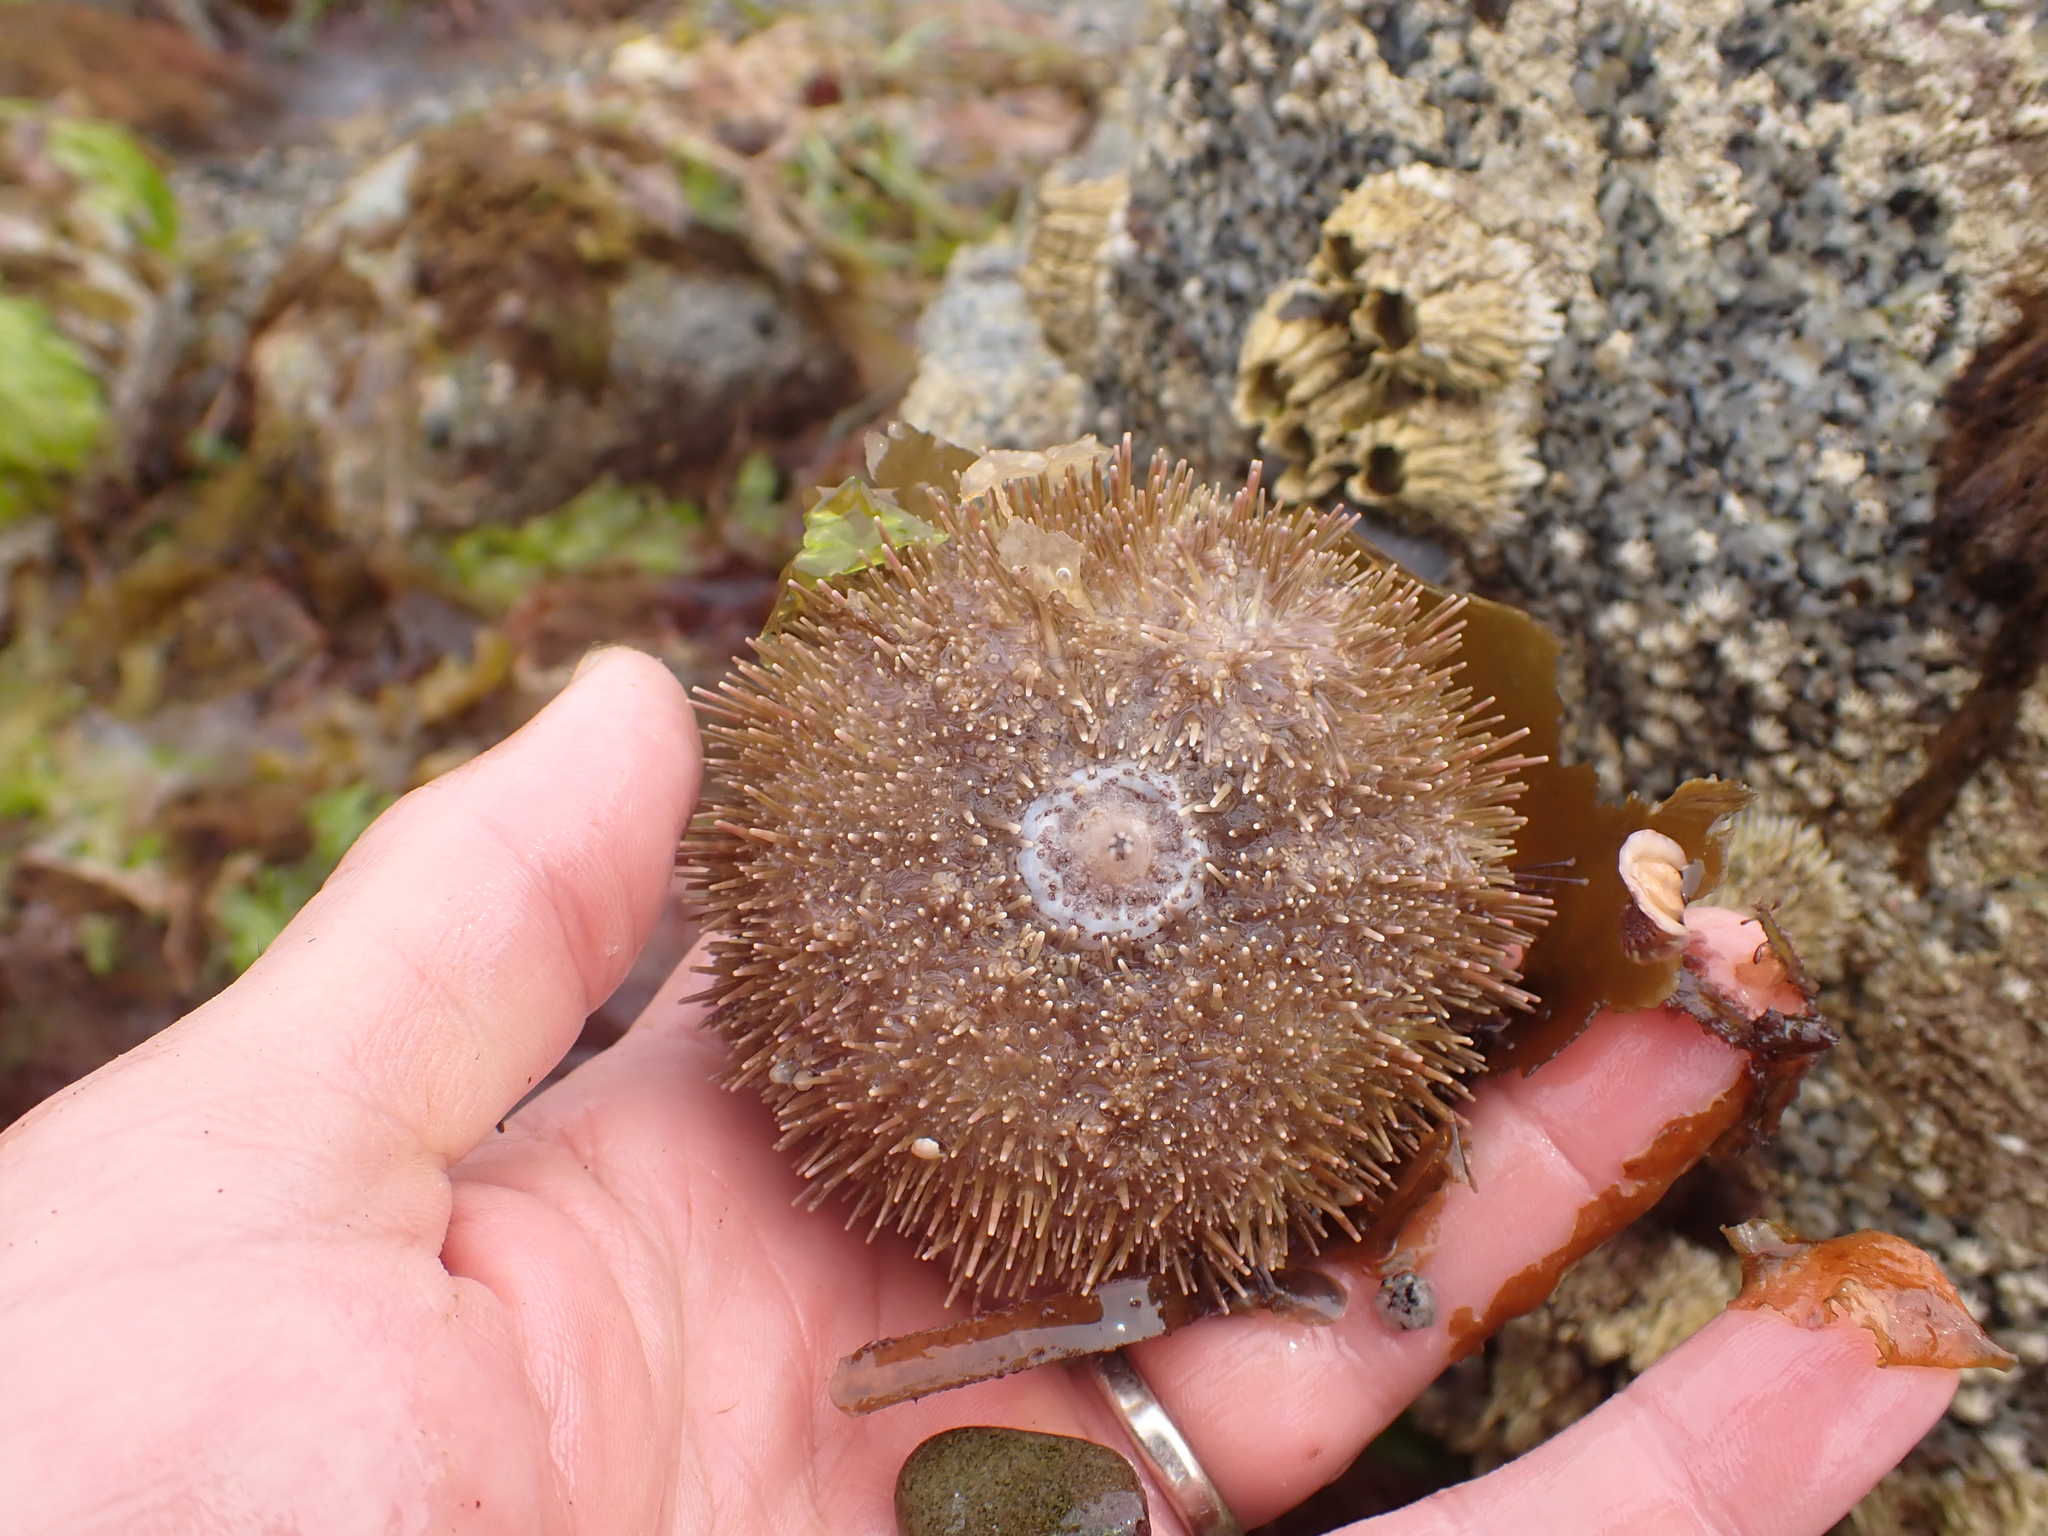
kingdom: Animalia
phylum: Echinodermata
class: Echinoidea
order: Camarodonta
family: Strongylocentrotidae
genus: Strongylocentrotus
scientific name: Strongylocentrotus droebachiensis
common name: Northern sea urchin
